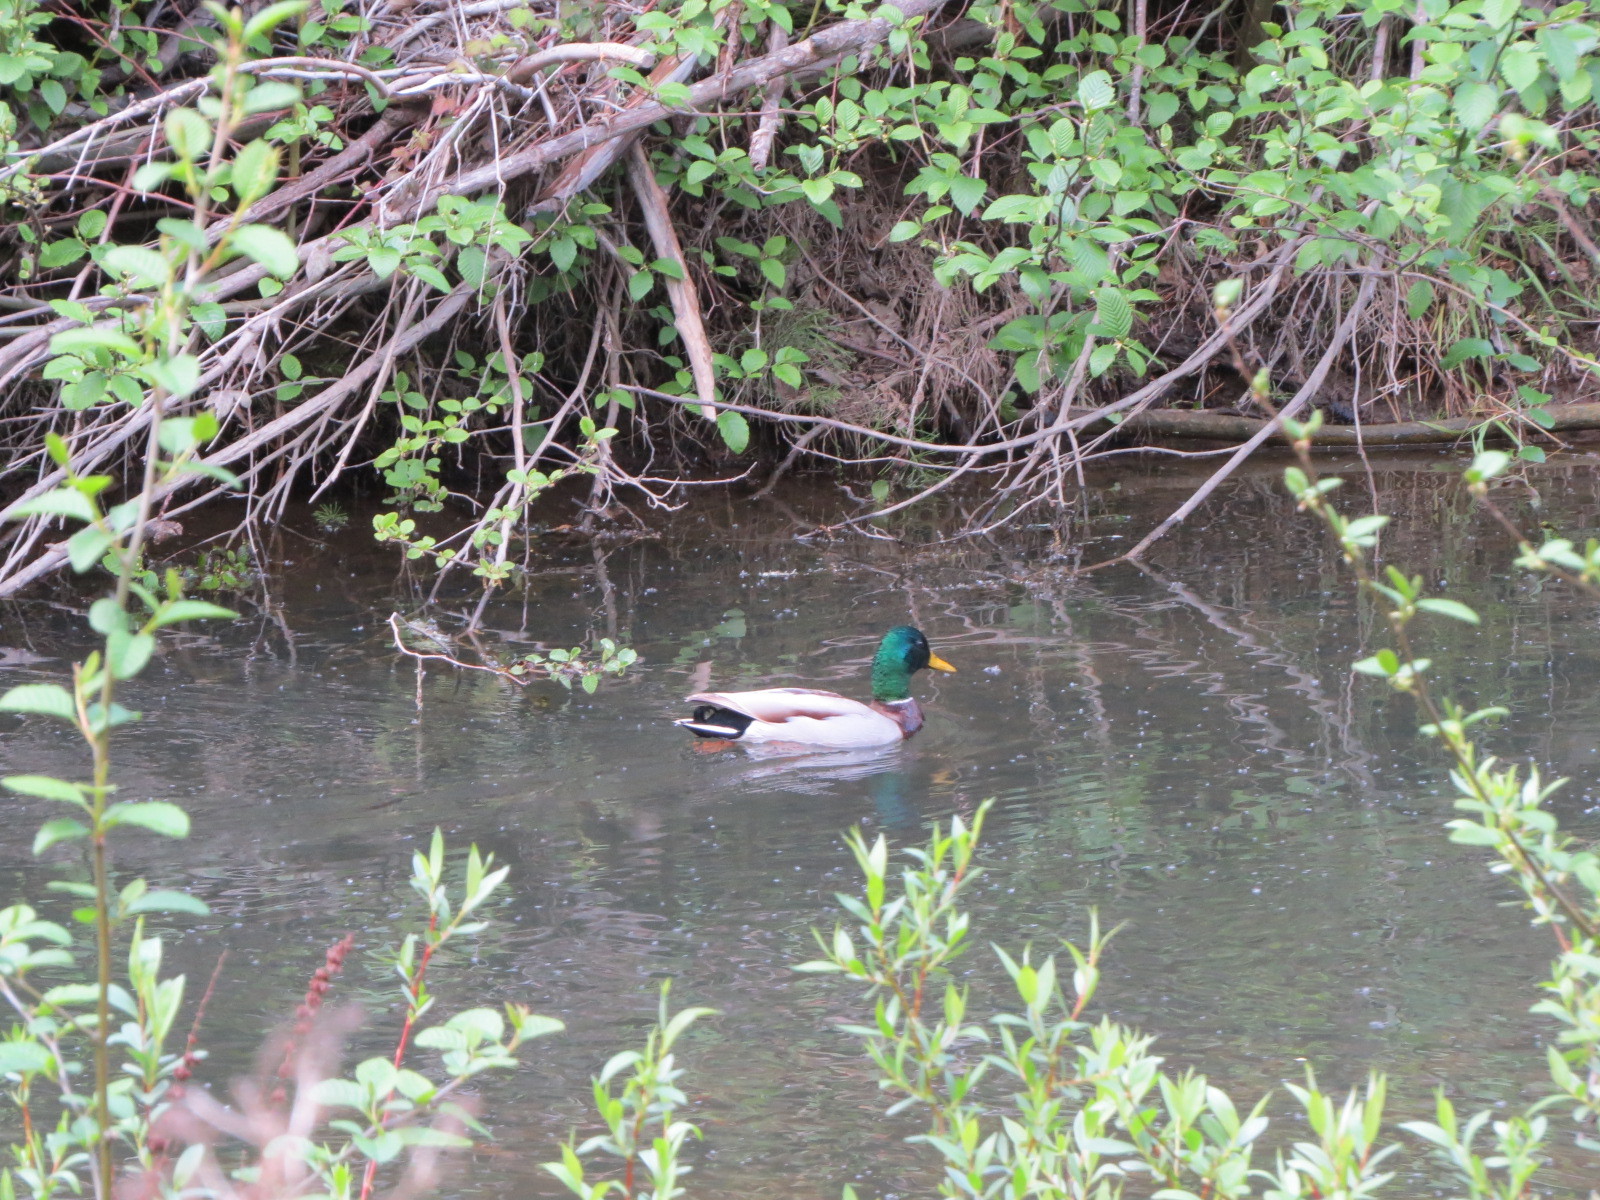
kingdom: Animalia
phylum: Chordata
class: Aves
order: Anseriformes
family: Anatidae
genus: Anas
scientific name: Anas platyrhynchos
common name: Mallard
